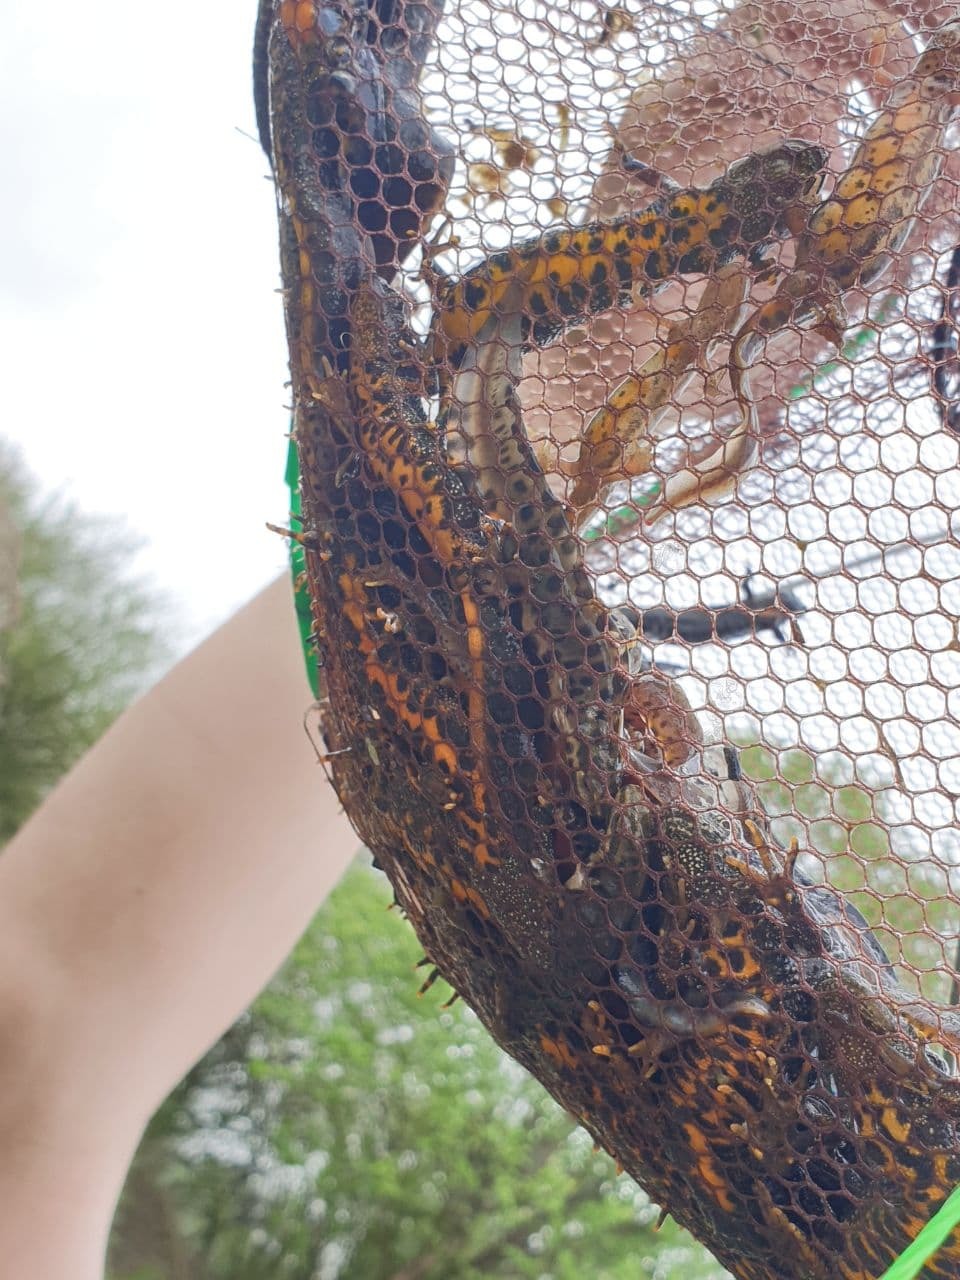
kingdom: Animalia
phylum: Chordata
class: Amphibia
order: Caudata
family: Salamandridae
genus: Triturus
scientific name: Triturus cristatus
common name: Crested newt
